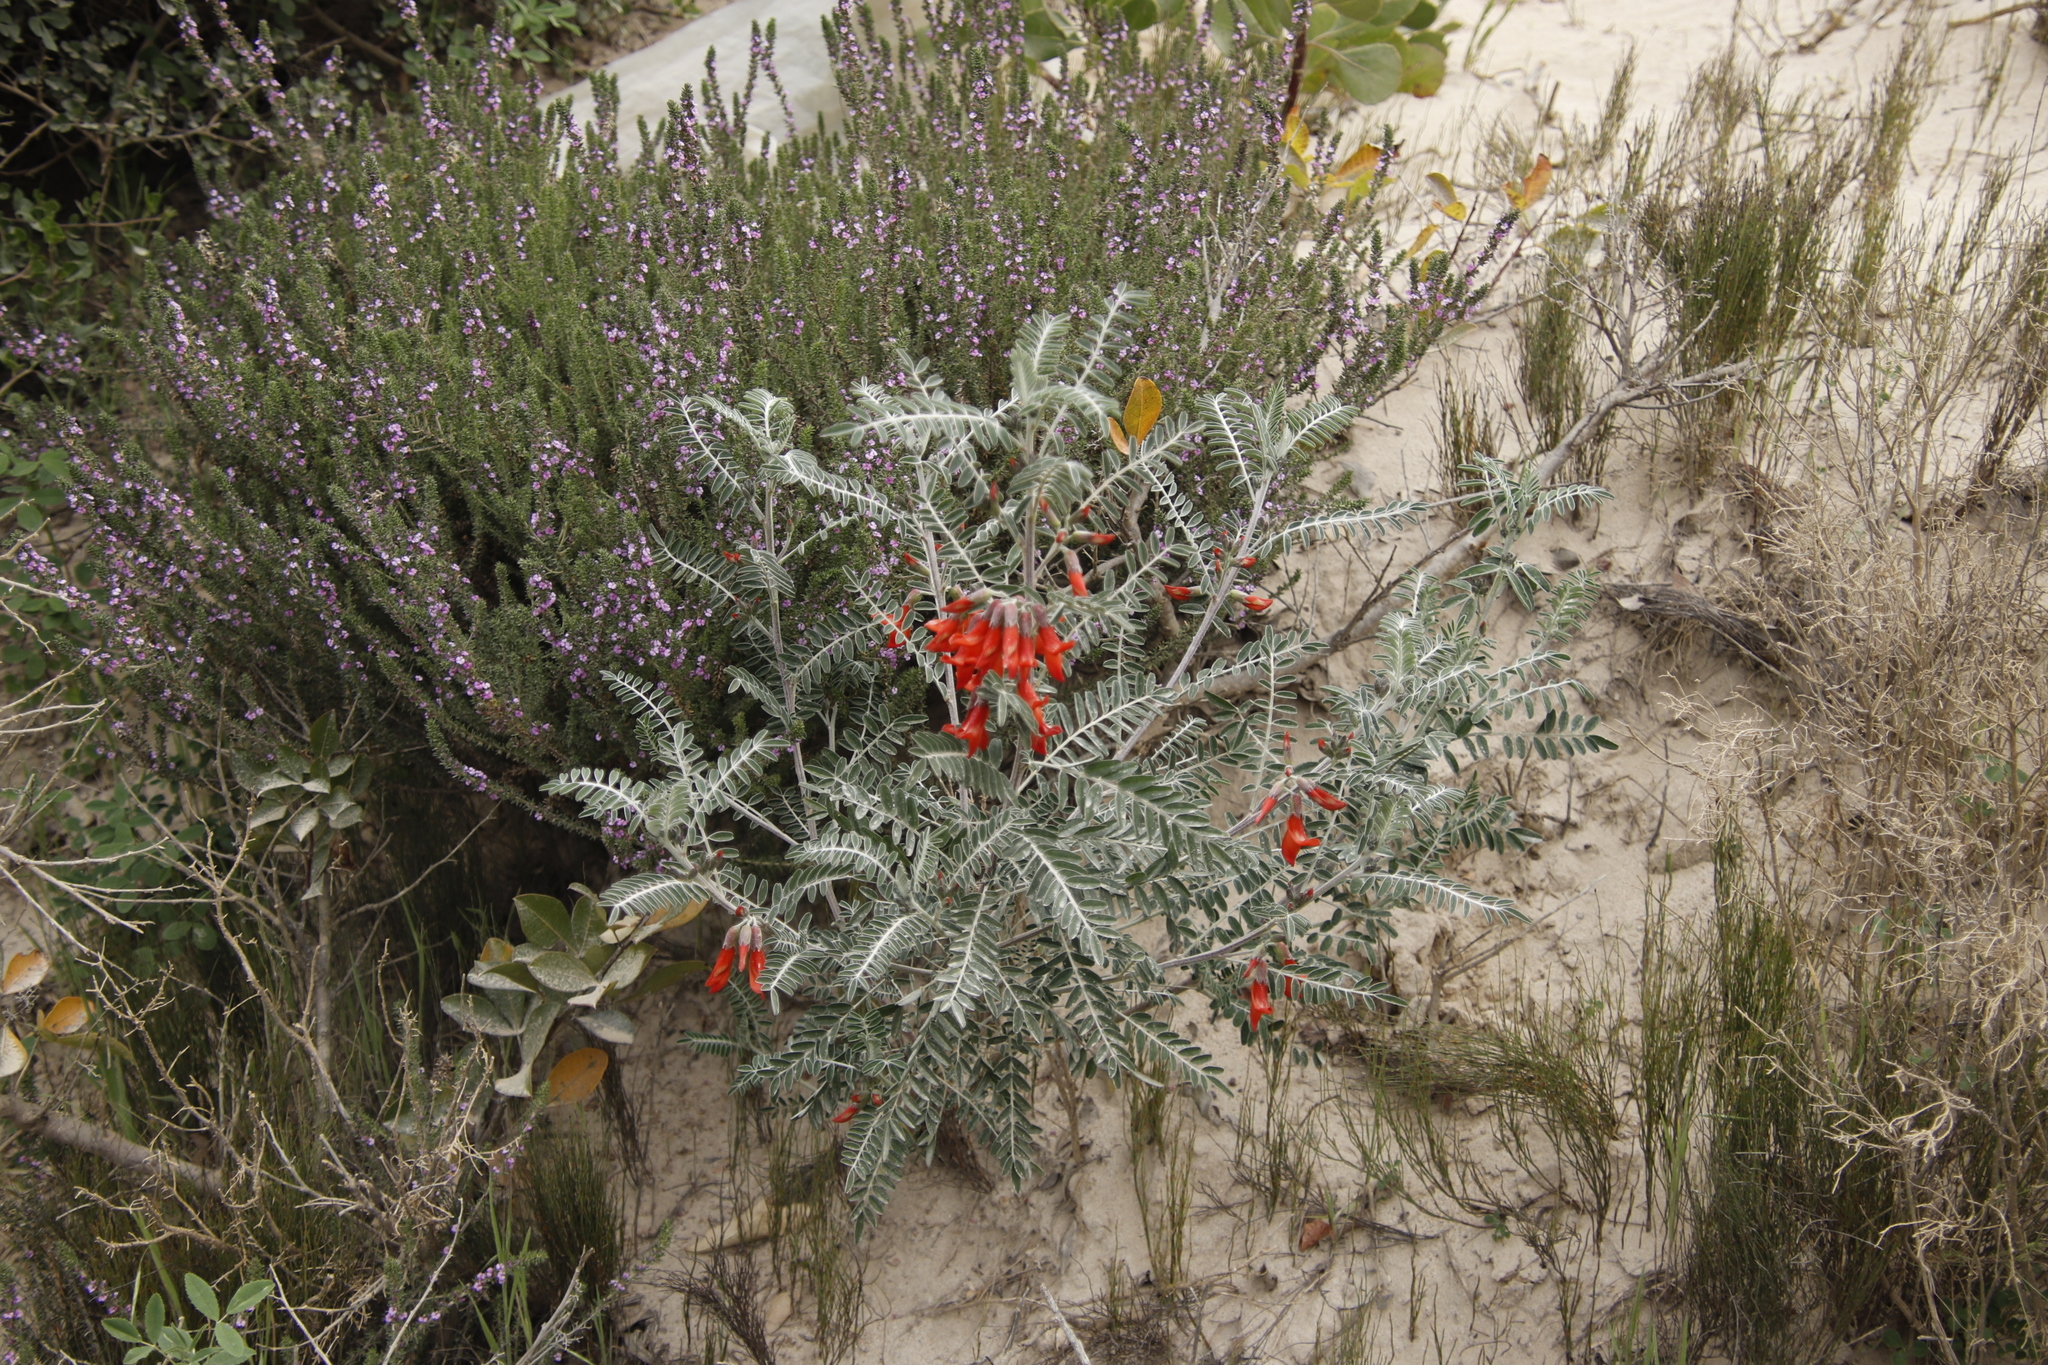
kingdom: Plantae
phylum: Tracheophyta
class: Magnoliopsida
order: Fabales
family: Fabaceae
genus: Lessertia
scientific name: Lessertia frutescens
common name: Balloon-pea
